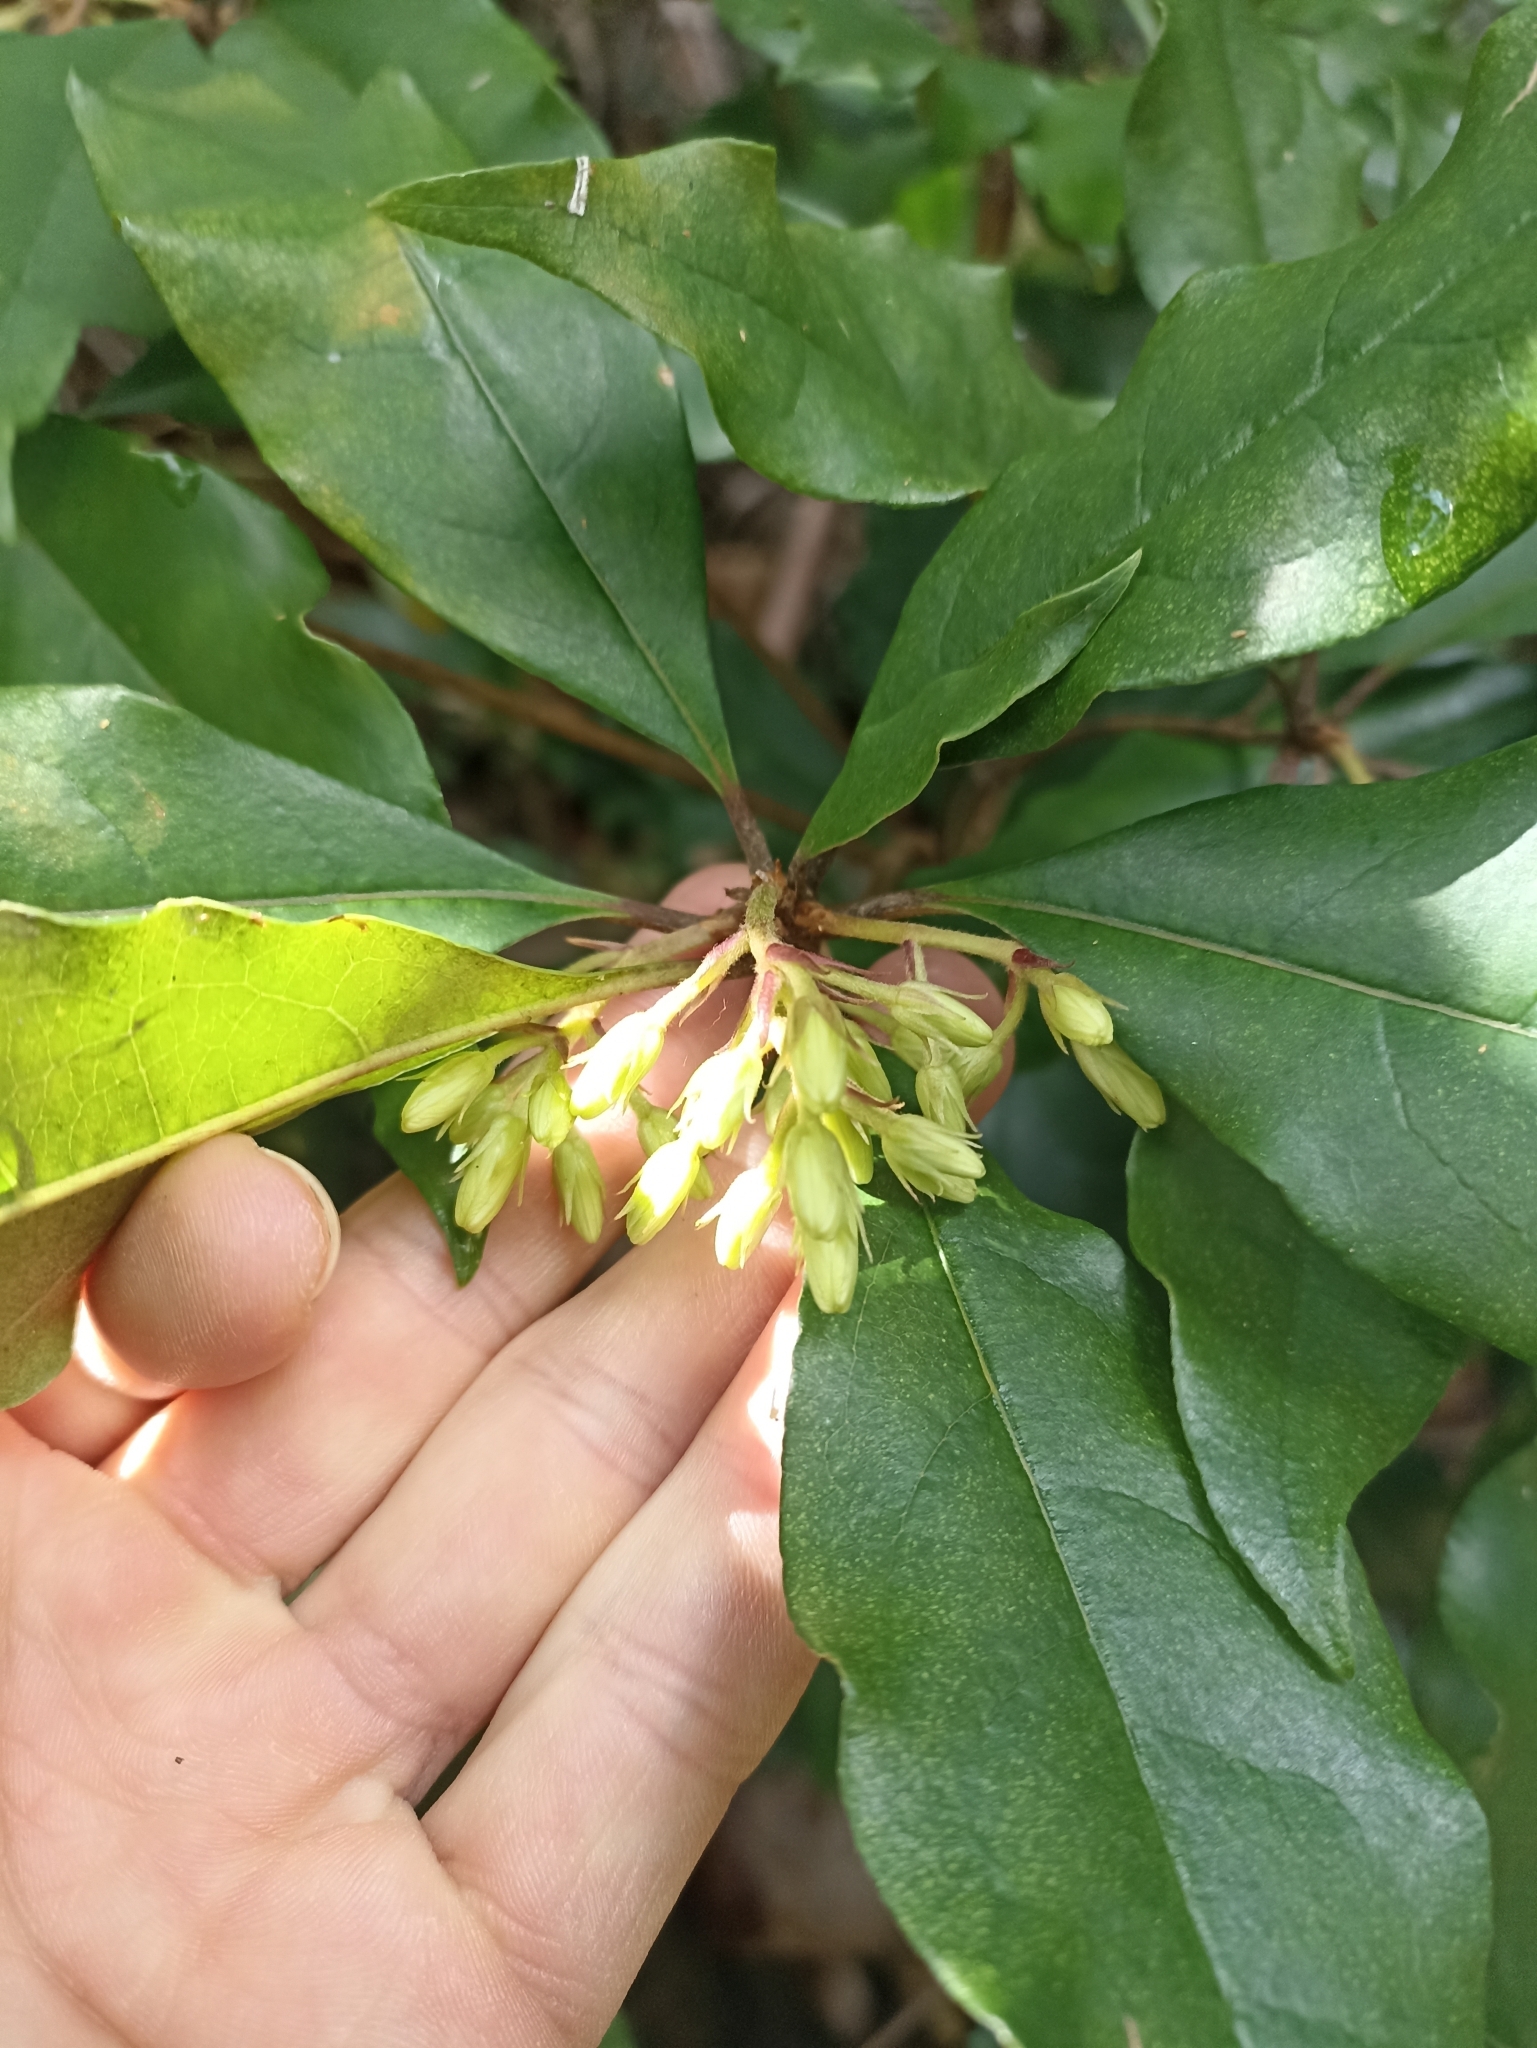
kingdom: Plantae
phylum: Tracheophyta
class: Magnoliopsida
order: Apiales
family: Pittosporaceae
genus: Pittosporum
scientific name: Pittosporum revolutum
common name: Brisbane-laurel
